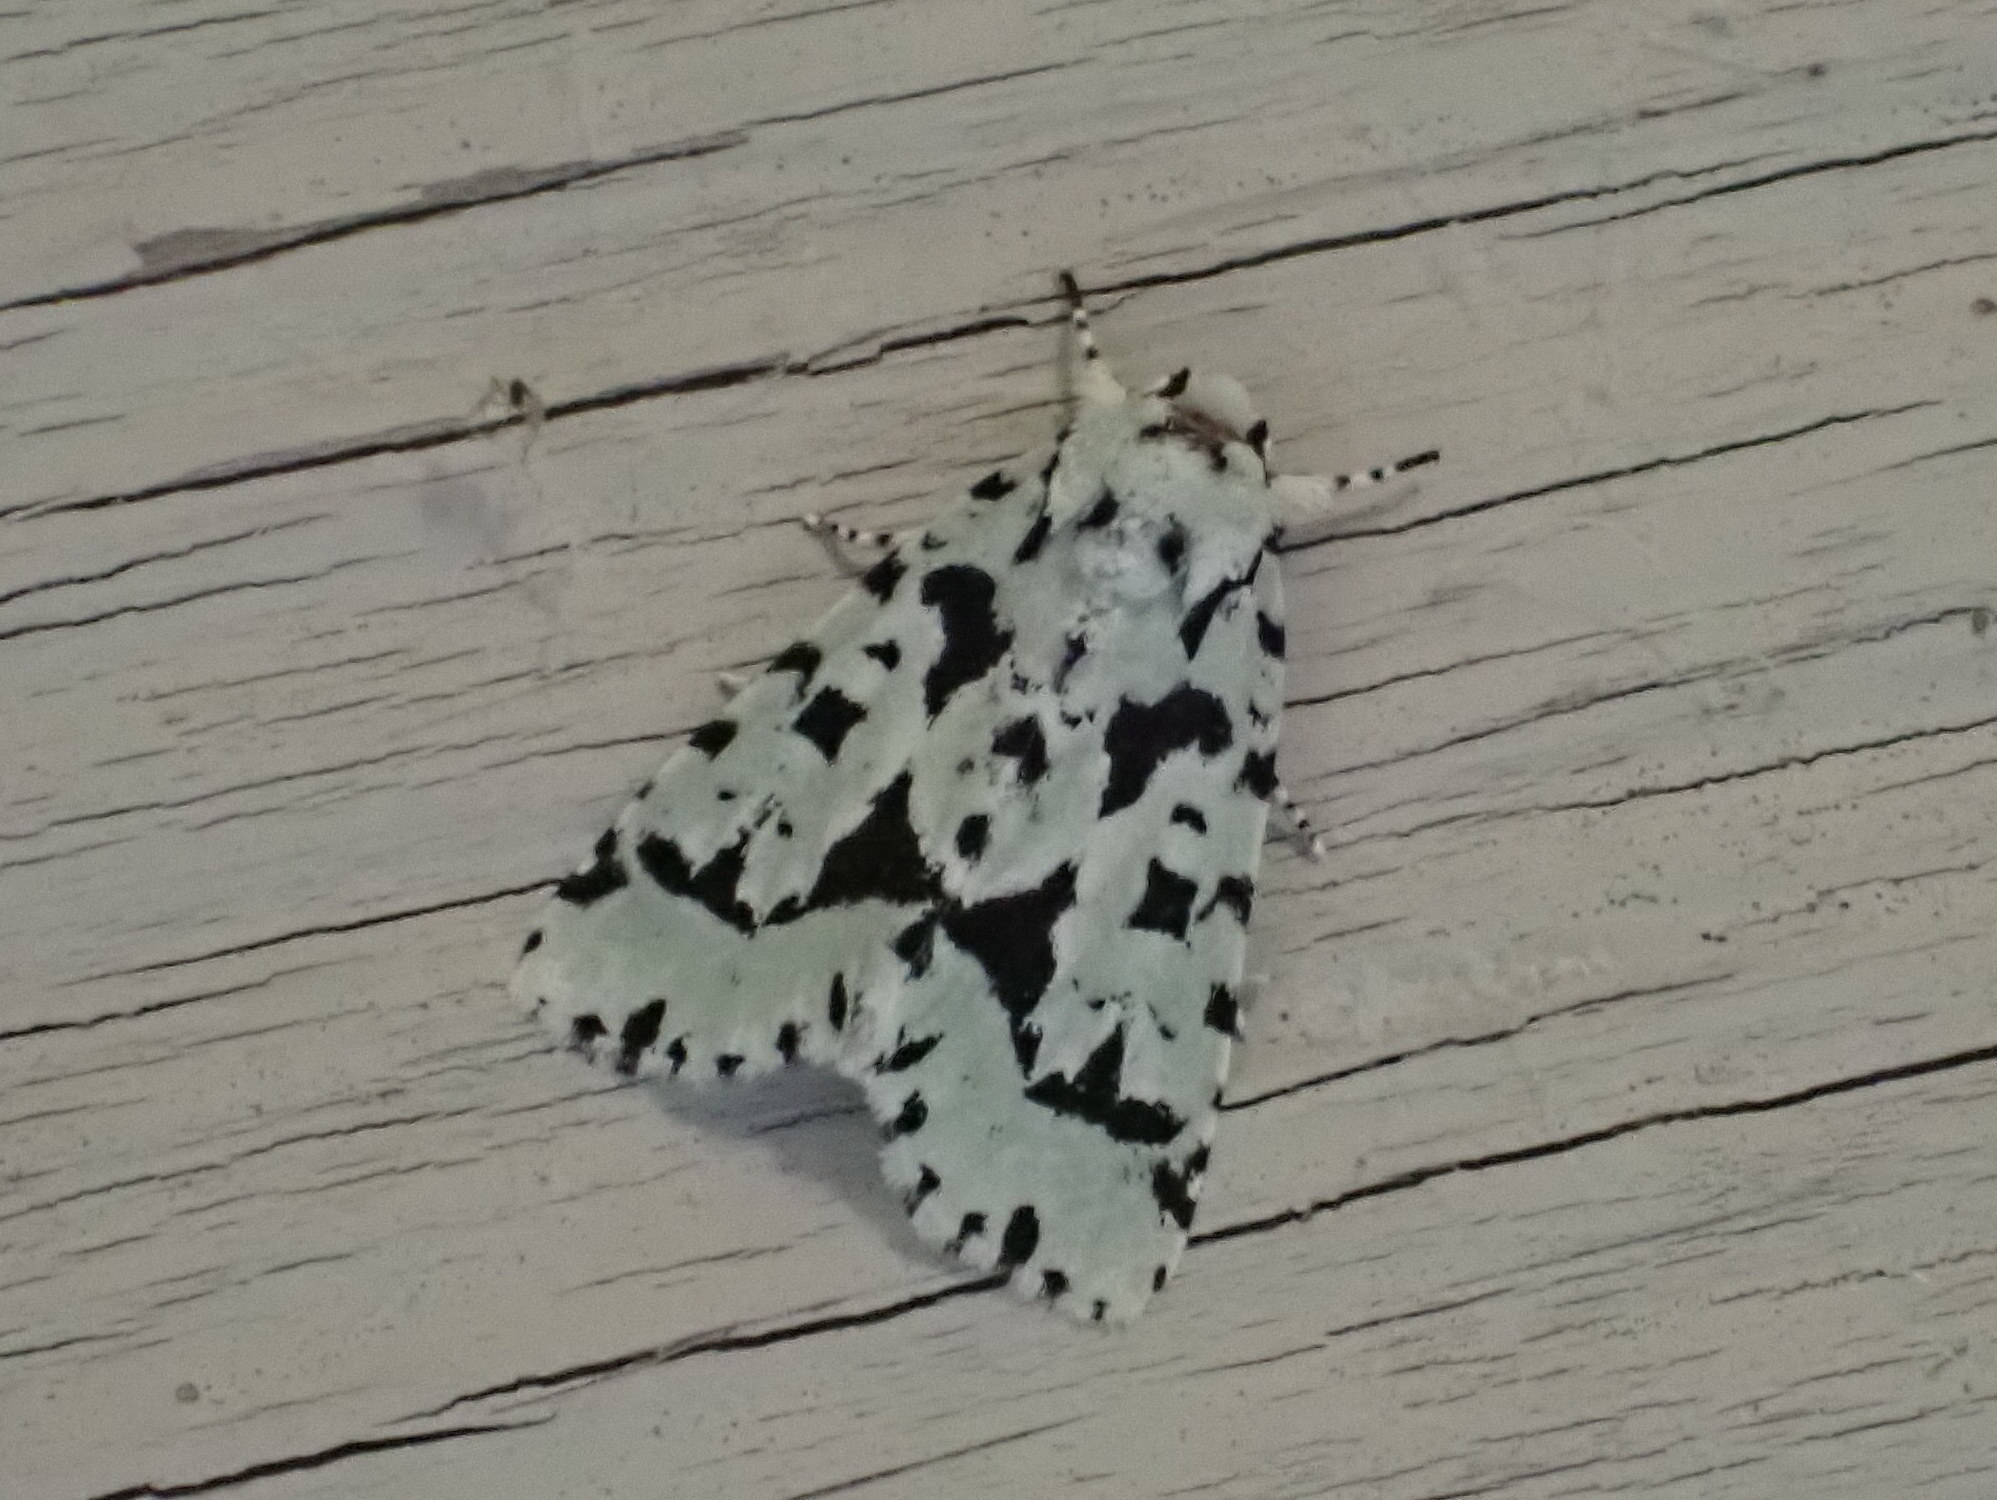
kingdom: Animalia
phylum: Arthropoda
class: Insecta
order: Lepidoptera
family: Noctuidae
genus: Acronicta
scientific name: Acronicta fallax
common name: Green marvel
